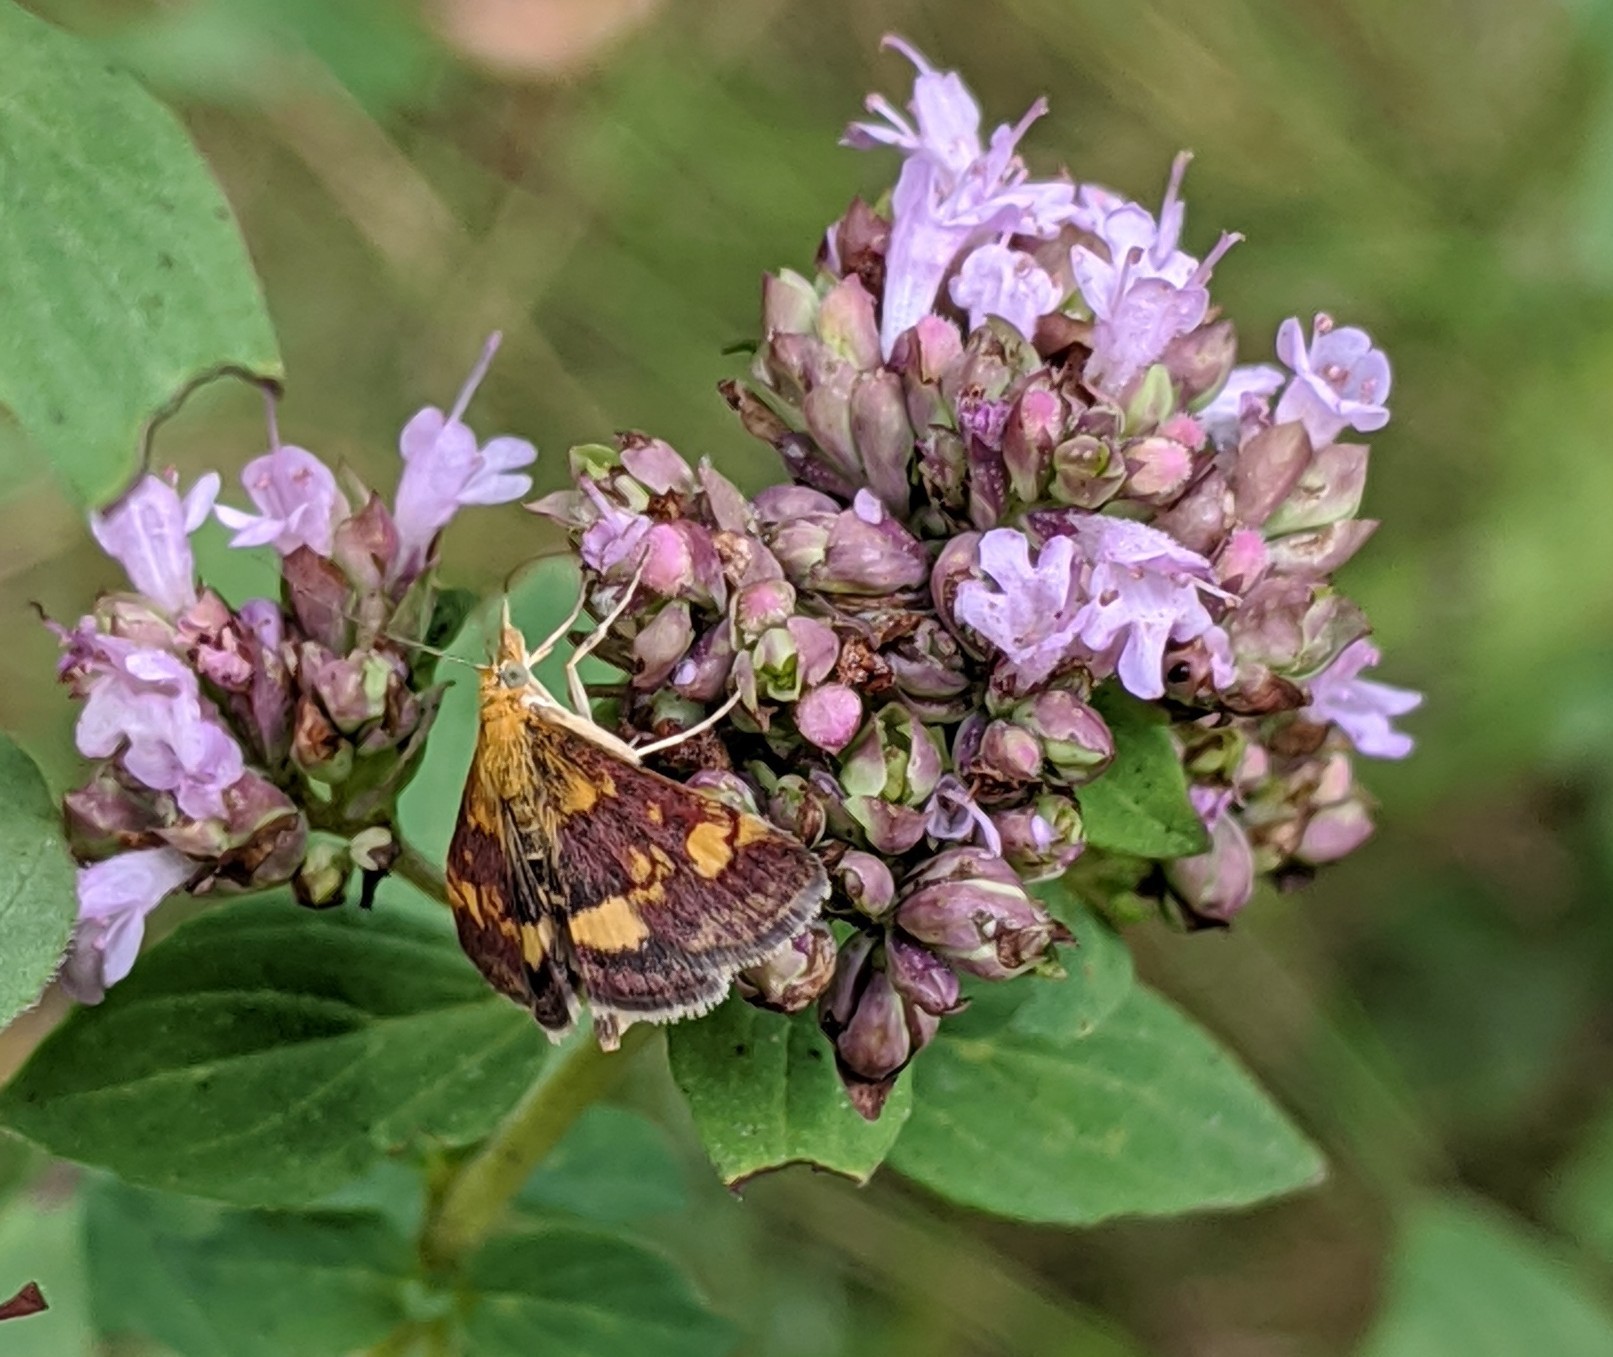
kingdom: Animalia
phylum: Arthropoda
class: Insecta
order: Lepidoptera
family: Crambidae
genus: Pyrausta
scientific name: Pyrausta aurata
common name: Small purple & gold
